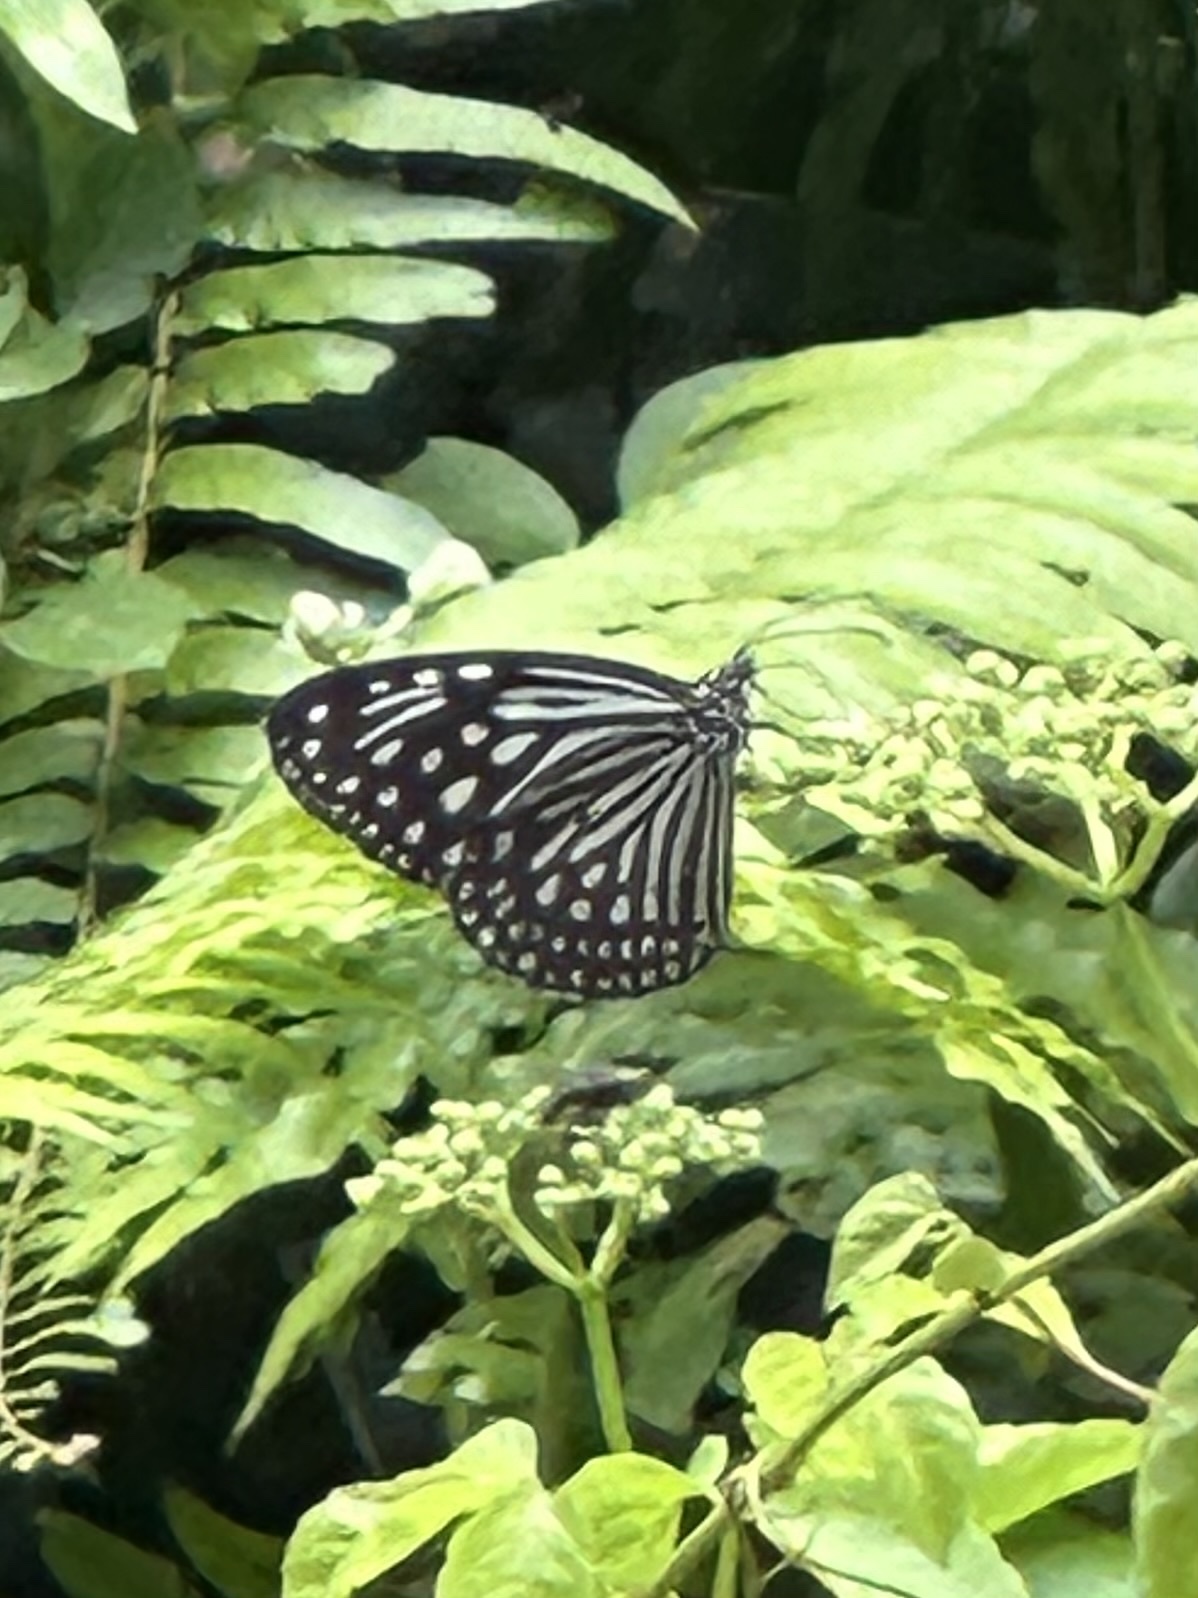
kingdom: Animalia
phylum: Arthropoda
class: Insecta
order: Lepidoptera
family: Nymphalidae
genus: Parantica
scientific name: Parantica agleoides
